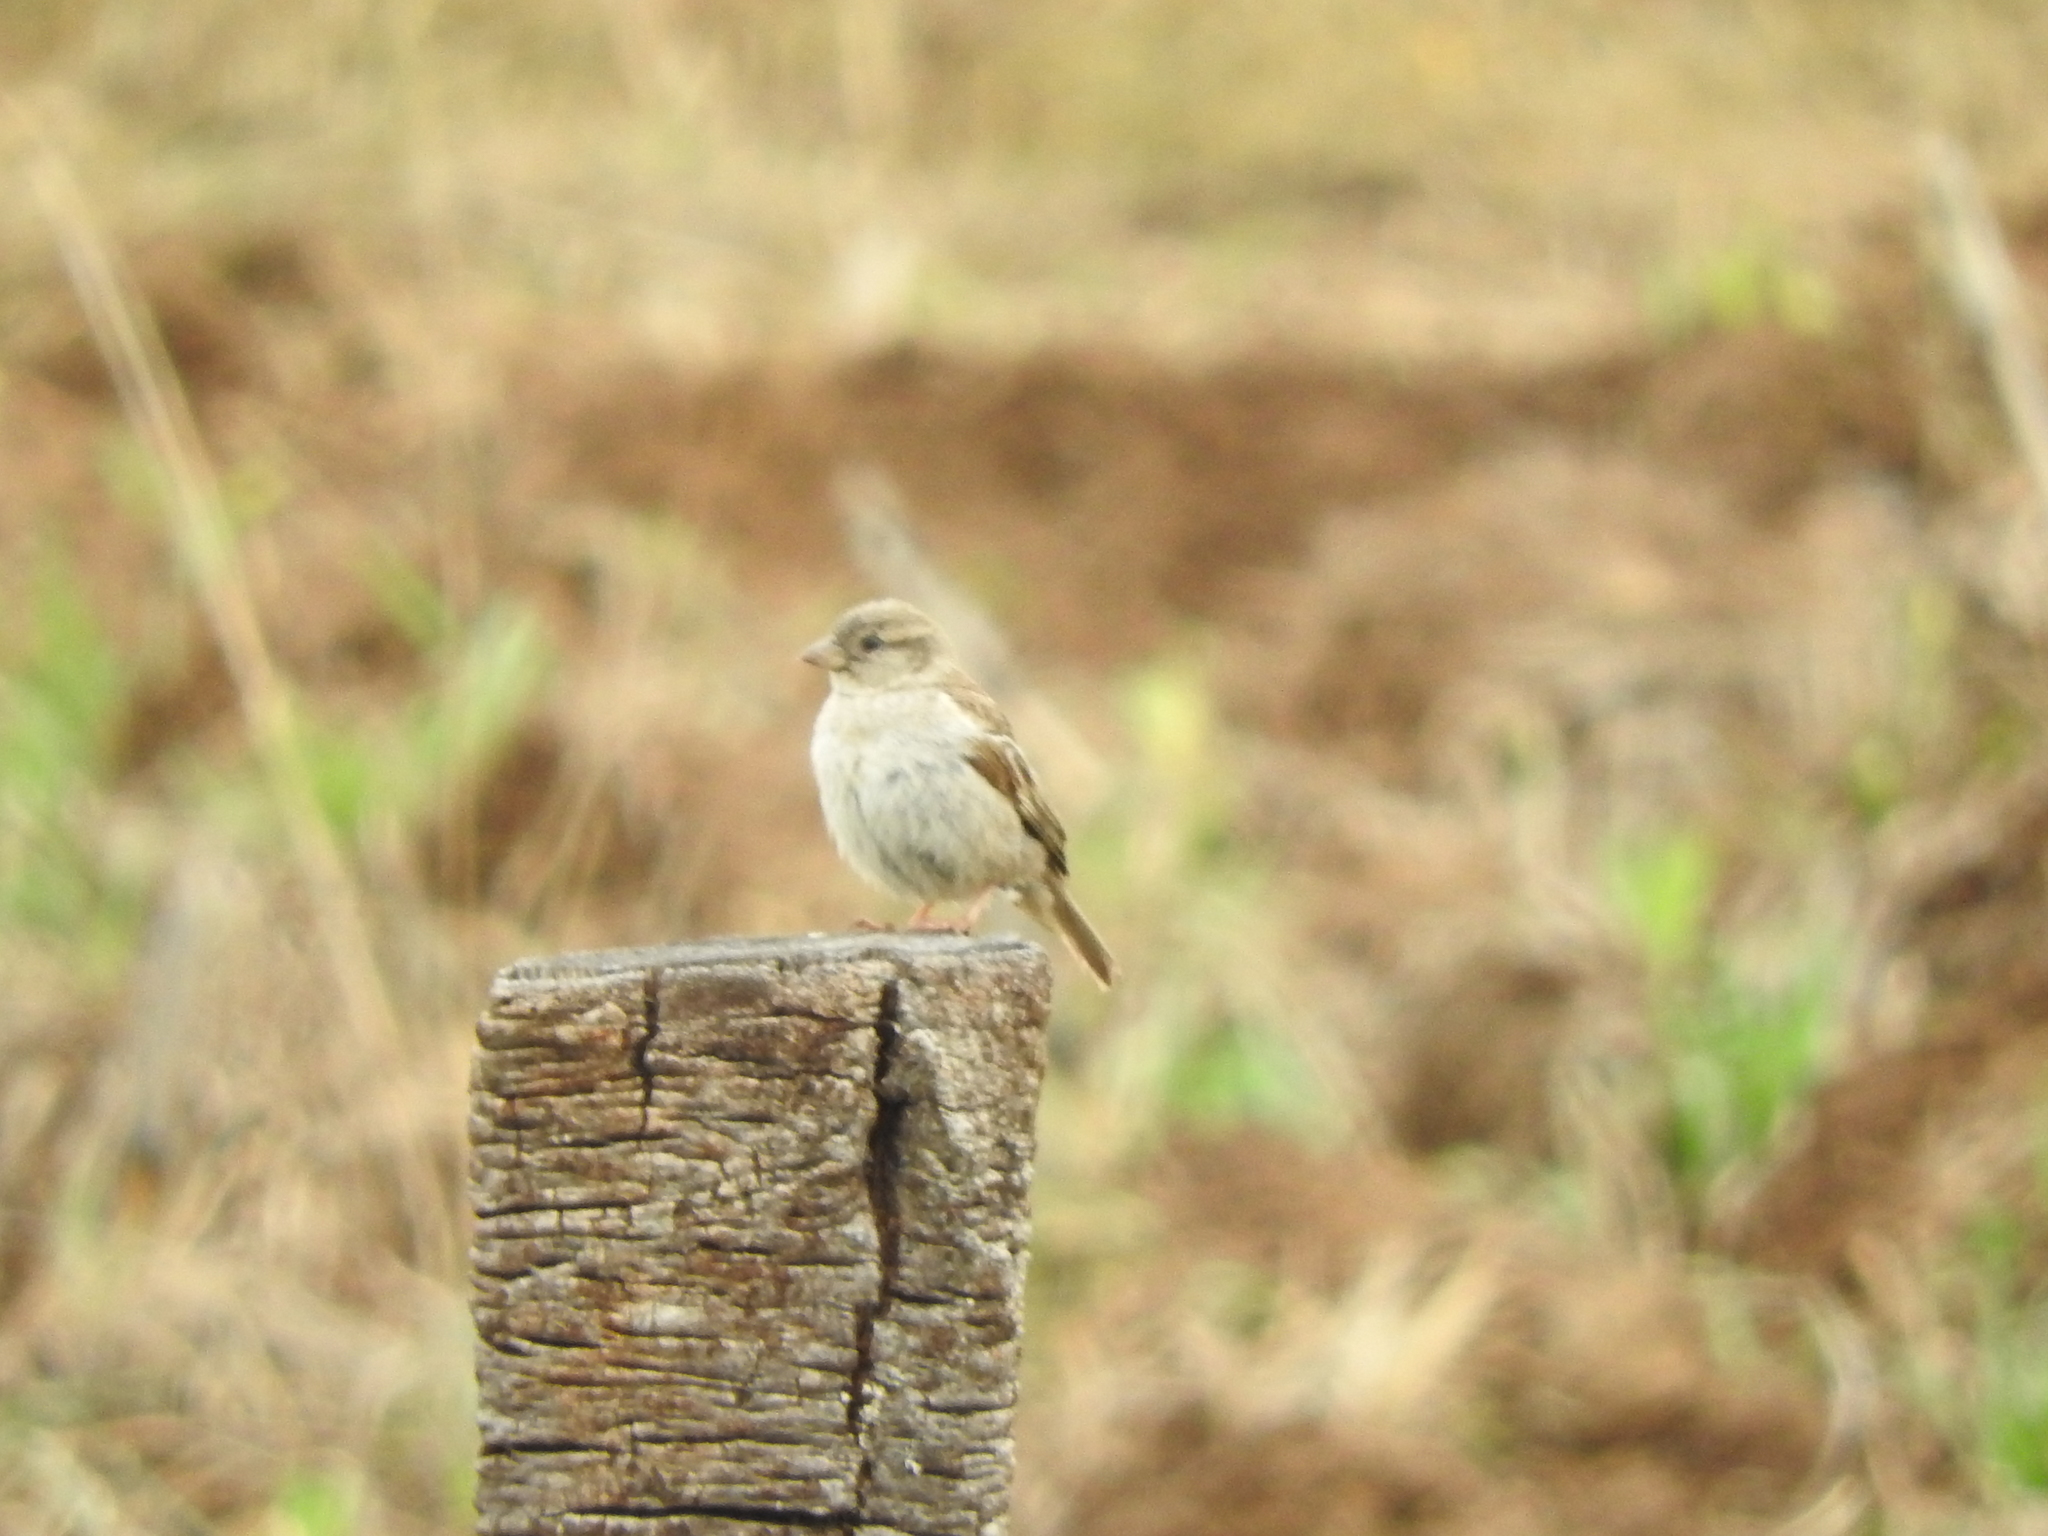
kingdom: Animalia
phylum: Chordata
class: Aves
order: Passeriformes
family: Passeridae
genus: Passer
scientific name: Passer domesticus
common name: House sparrow
